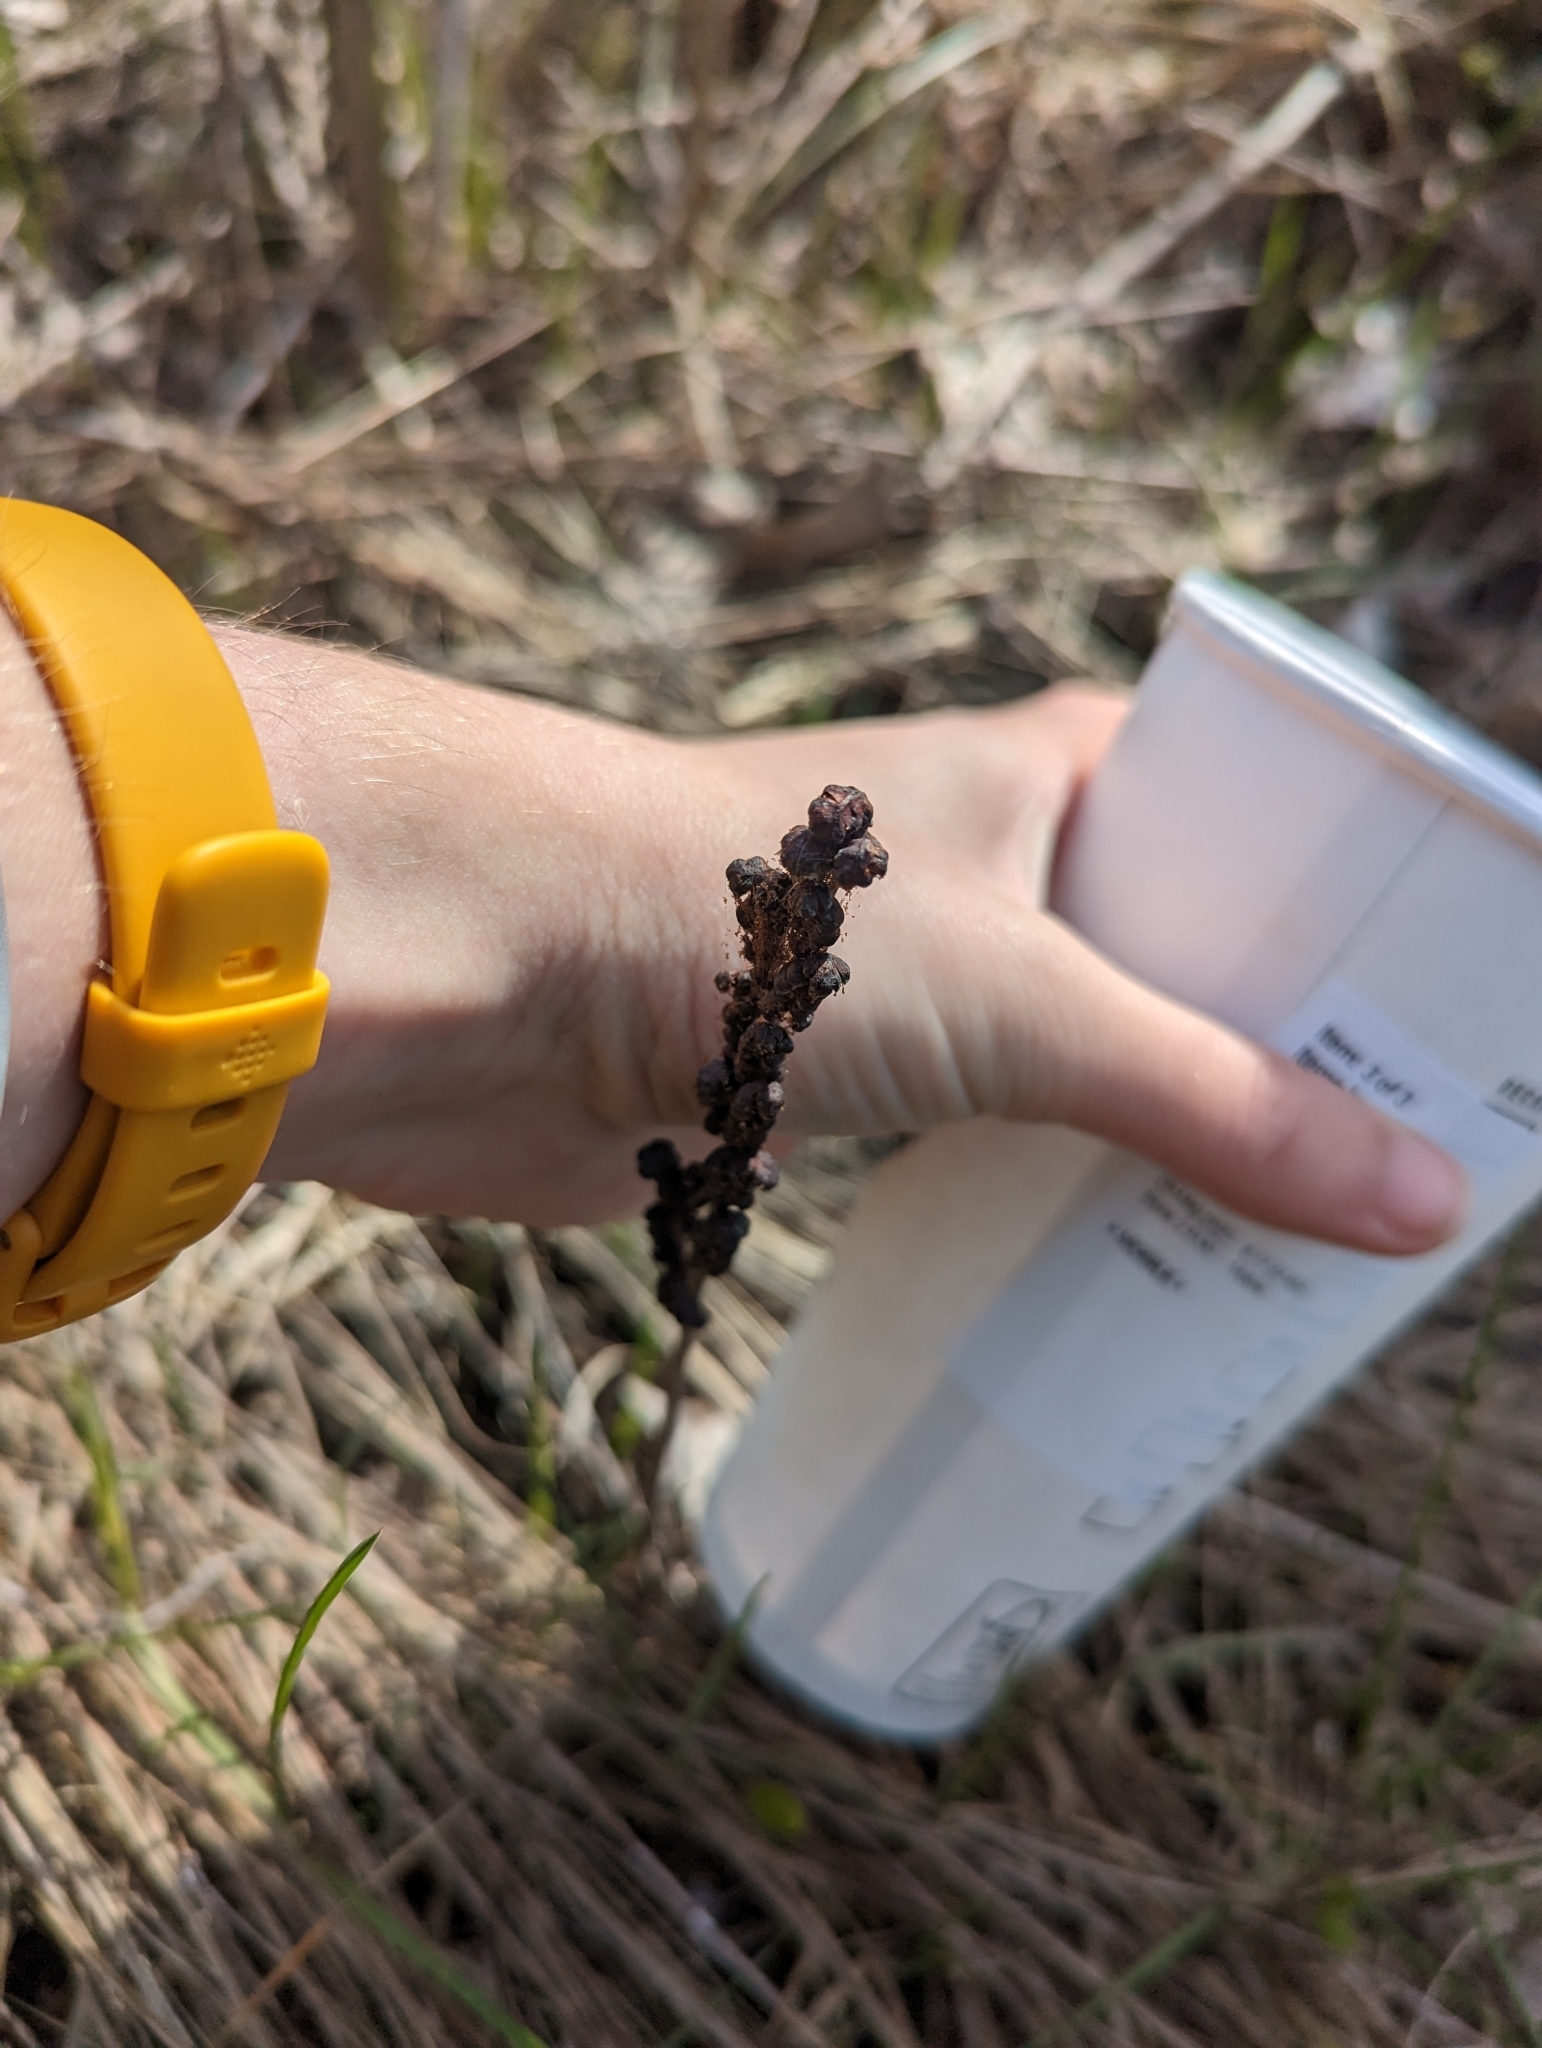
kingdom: Plantae
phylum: Tracheophyta
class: Polypodiopsida
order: Polypodiales
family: Onocleaceae
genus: Onoclea
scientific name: Onoclea sensibilis
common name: Sensitive fern
